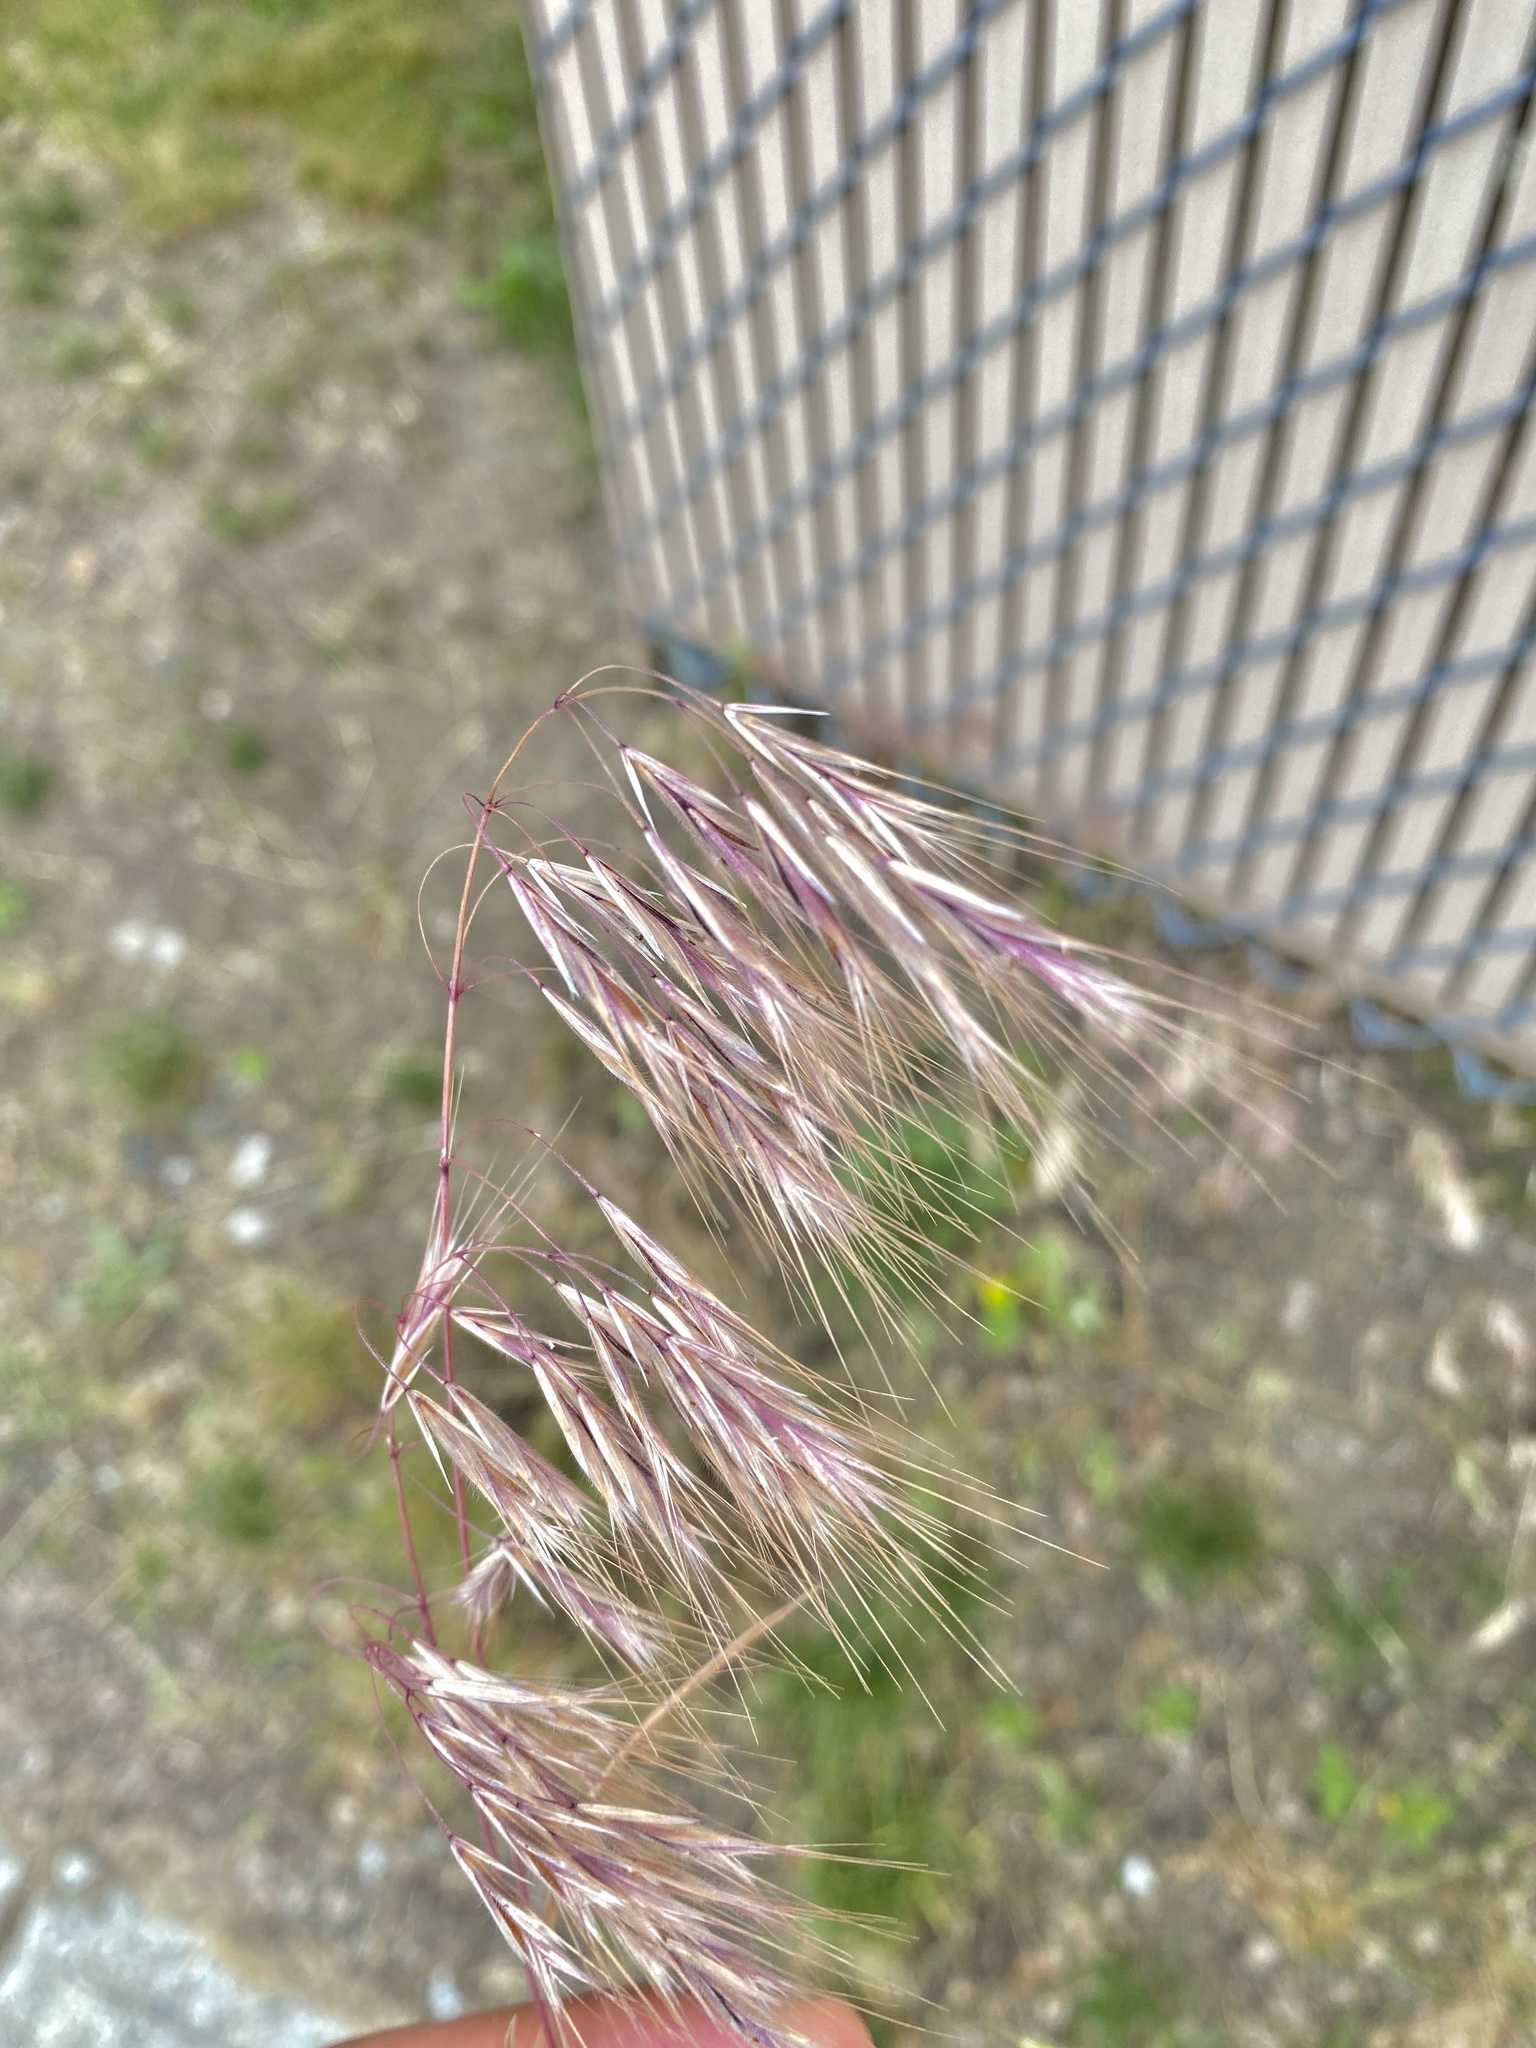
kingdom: Plantae
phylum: Tracheophyta
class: Liliopsida
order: Poales
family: Poaceae
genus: Bromus
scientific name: Bromus tectorum
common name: Cheatgrass
